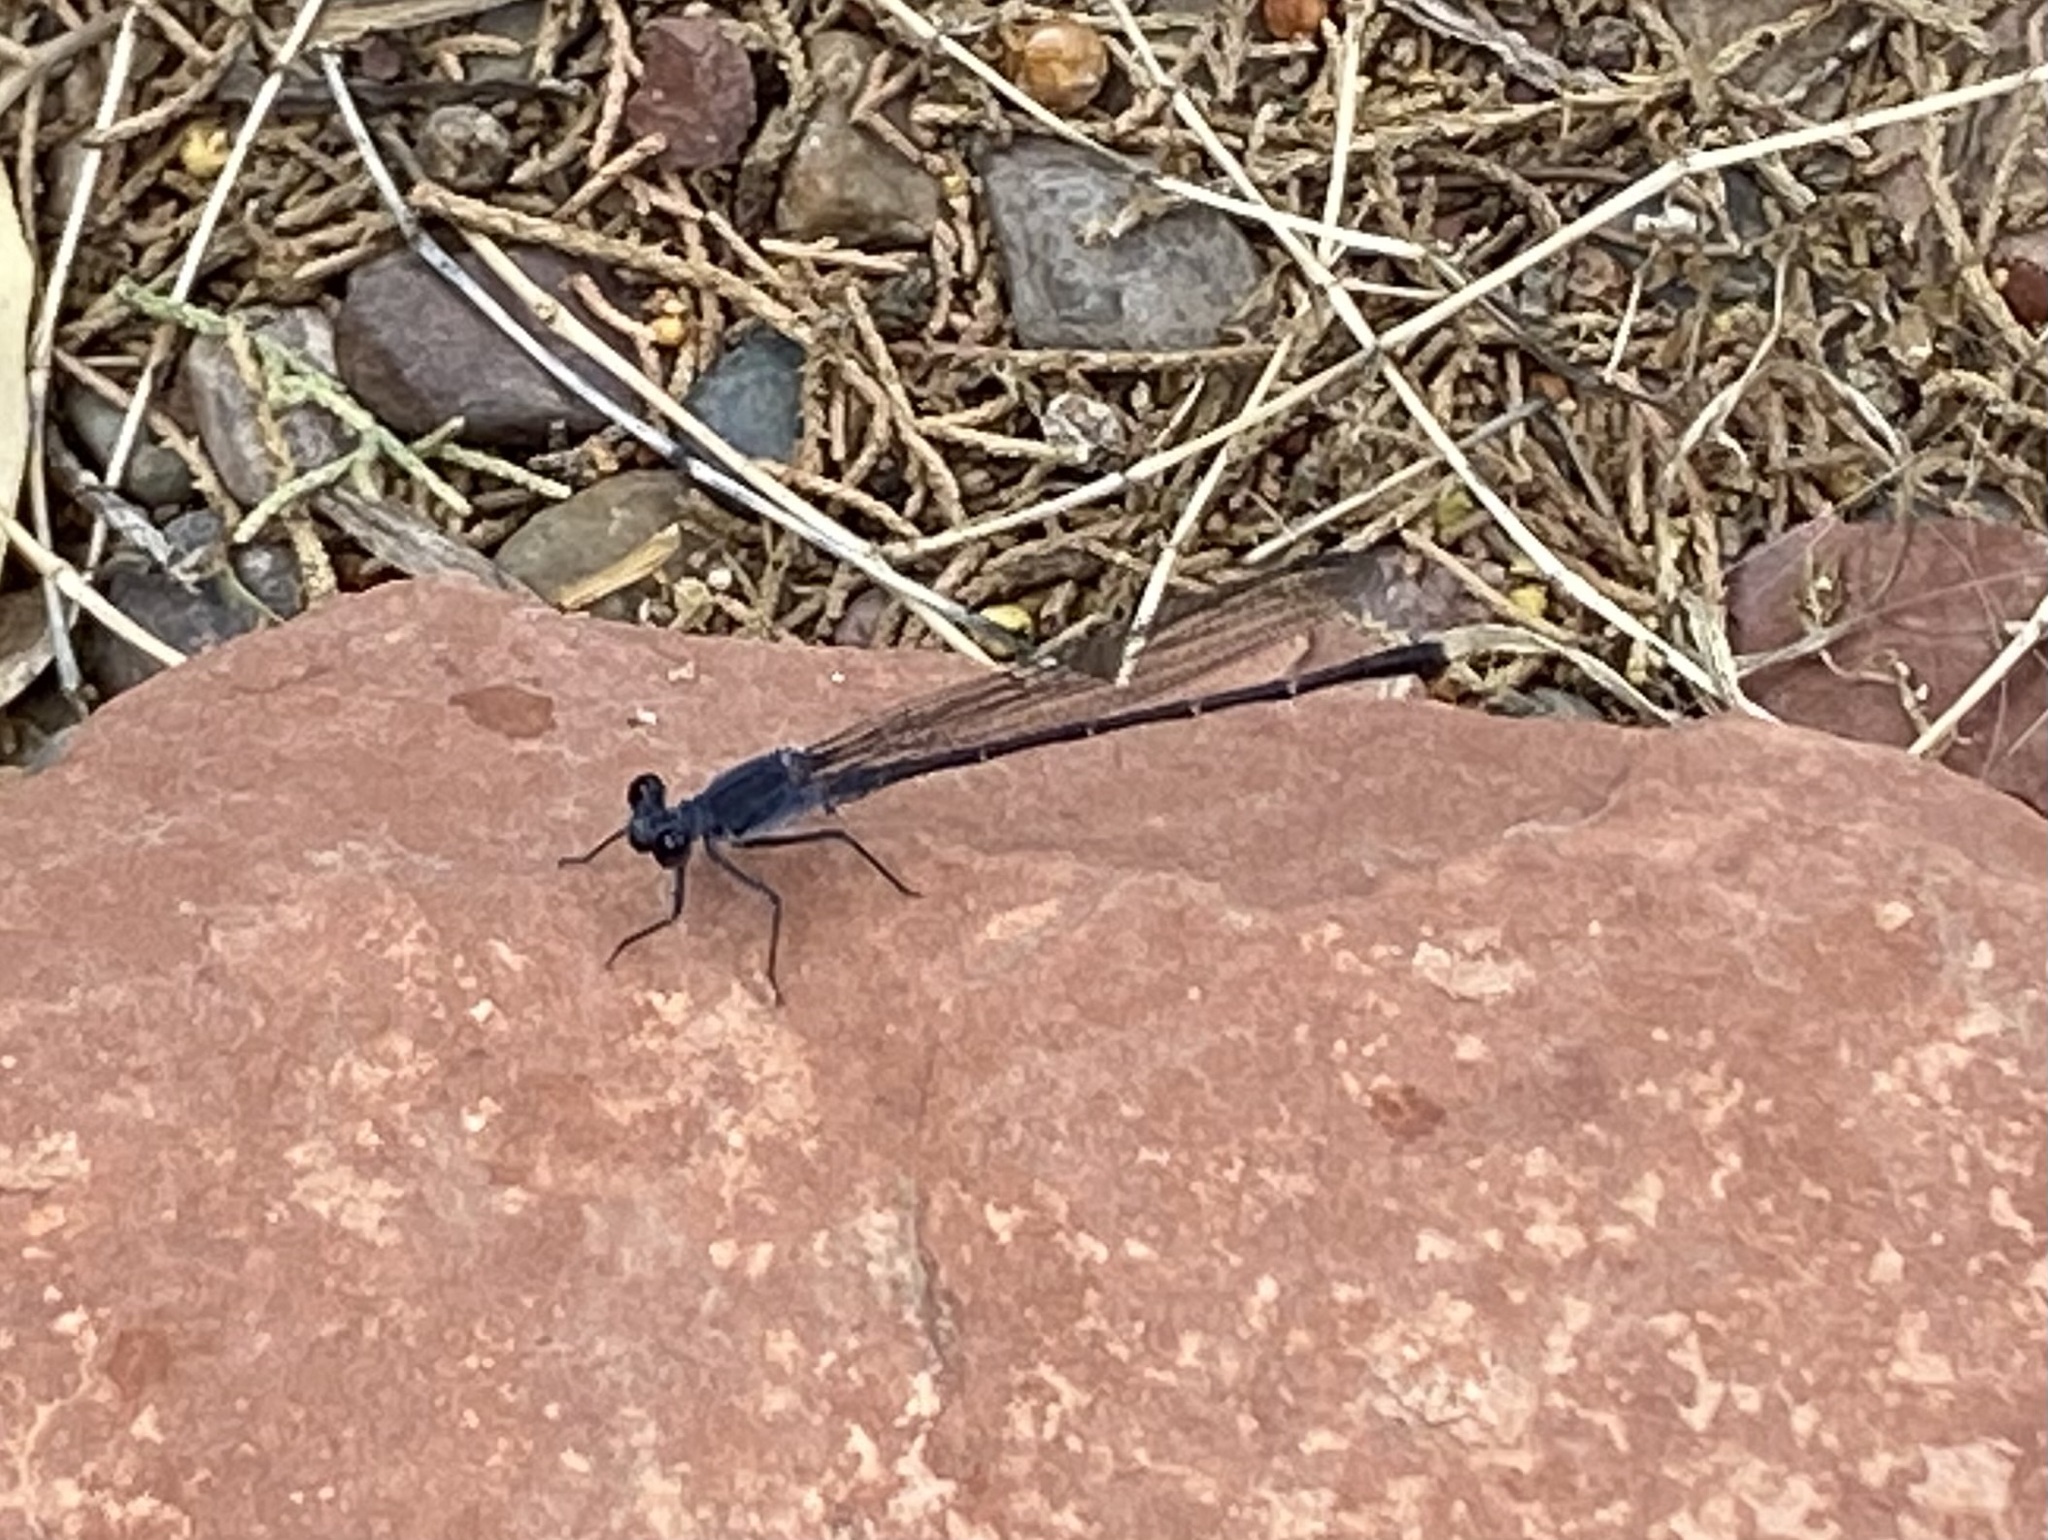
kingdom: Animalia
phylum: Arthropoda
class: Insecta
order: Odonata
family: Coenagrionidae
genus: Argia
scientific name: Argia lugens
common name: Sooty dancer
